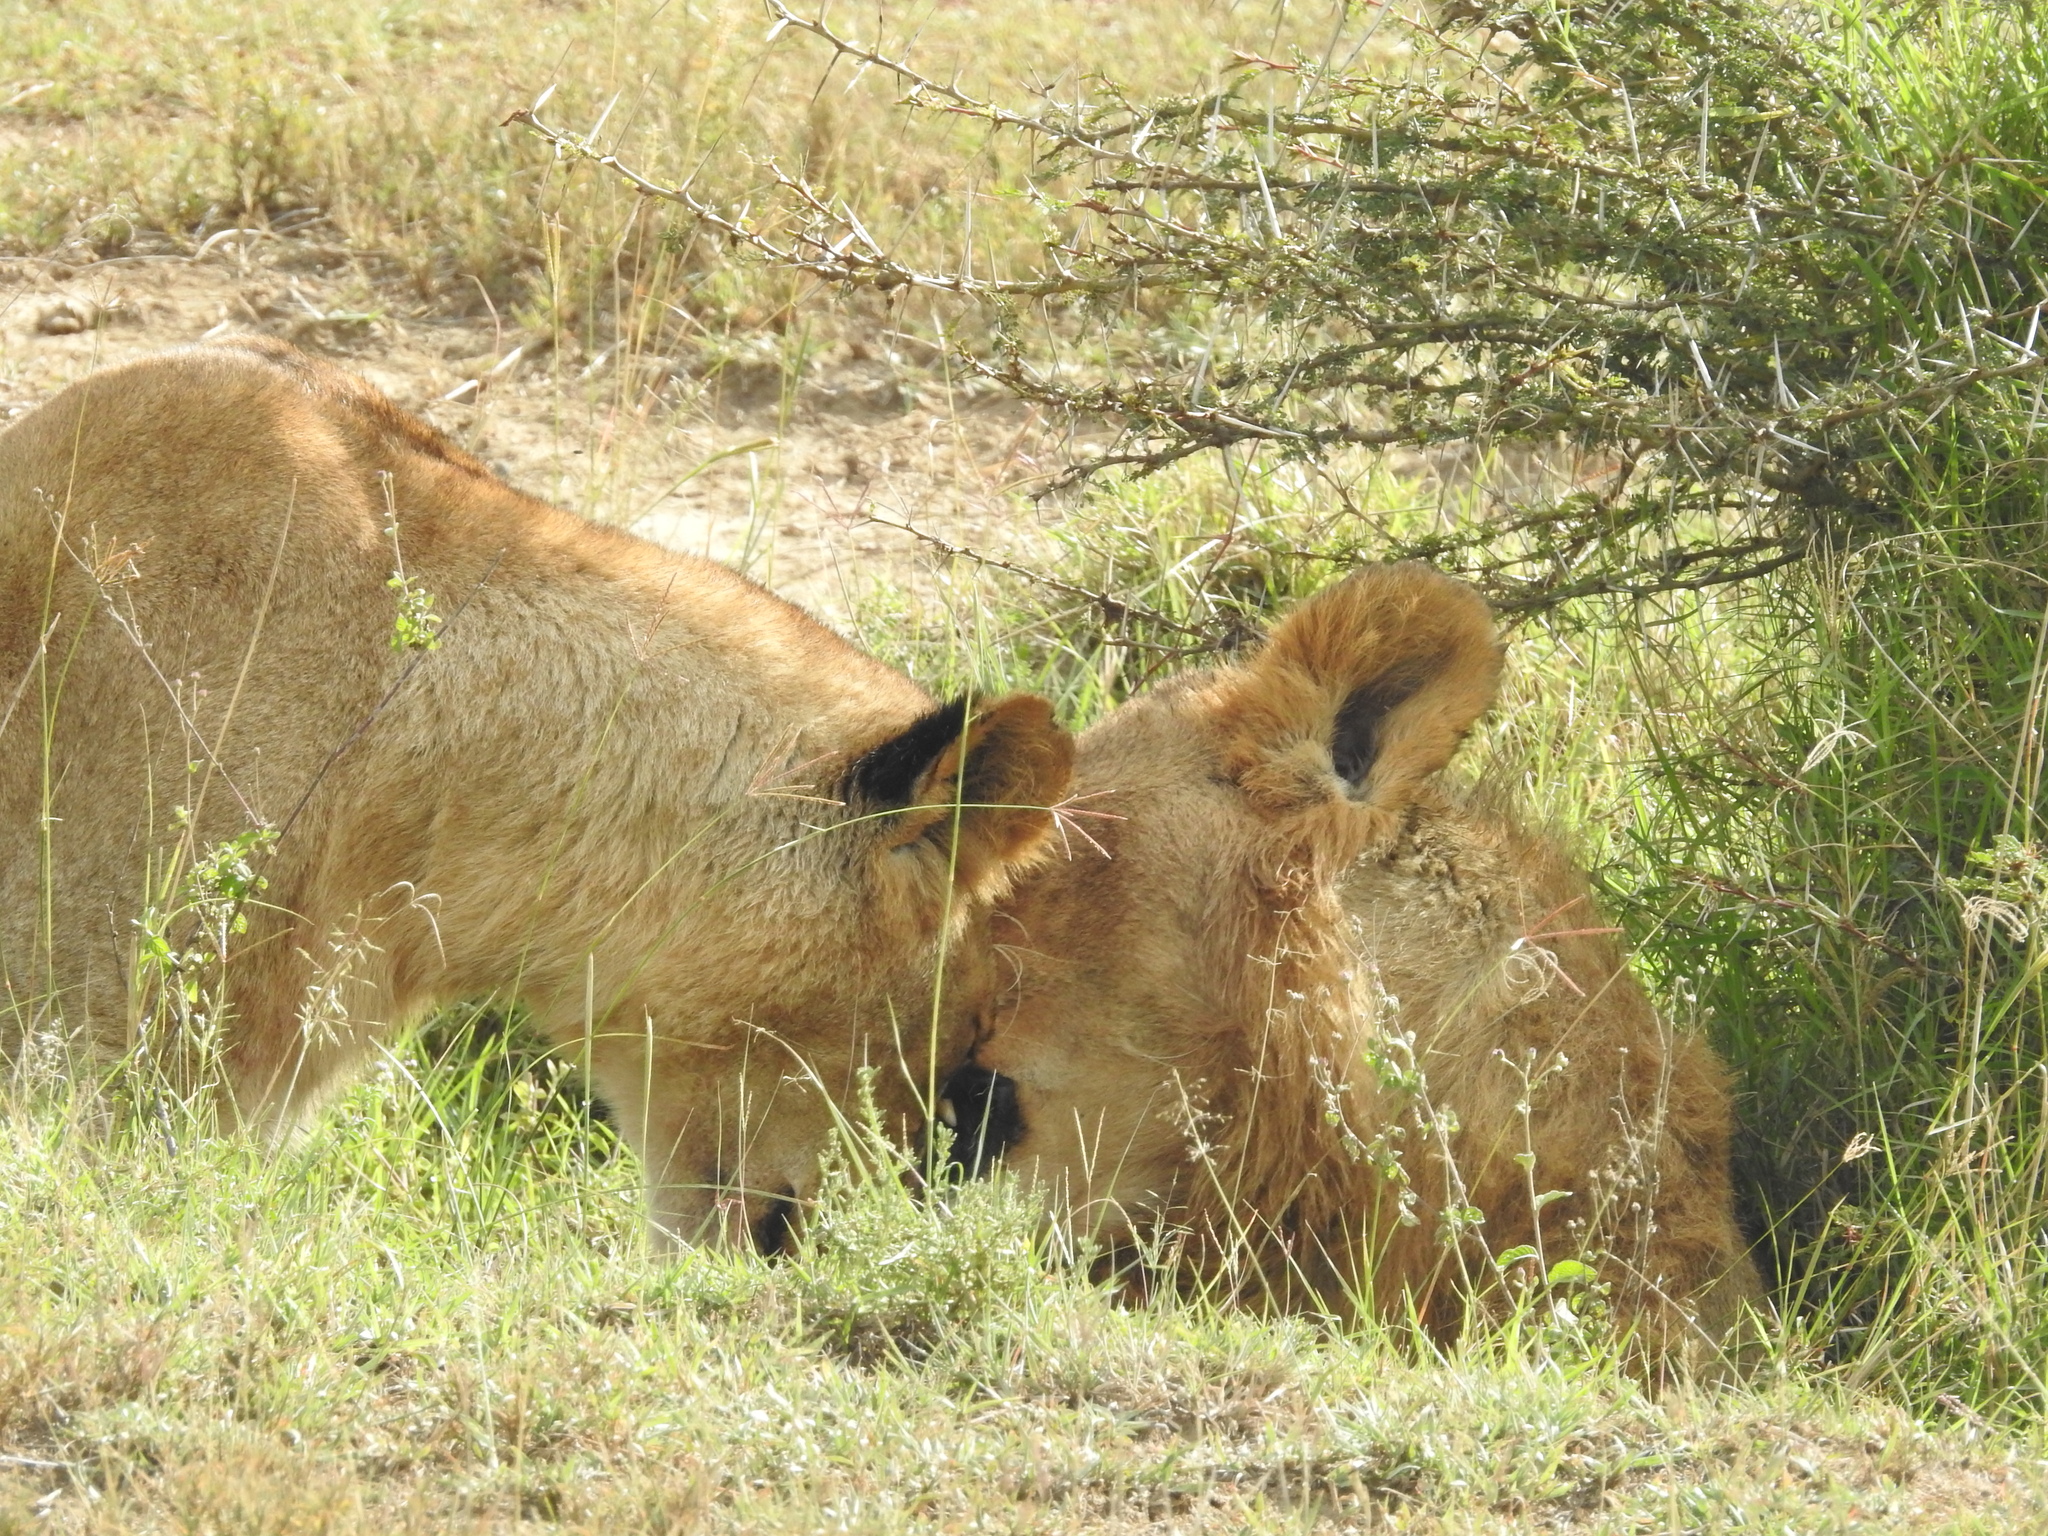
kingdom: Animalia
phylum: Chordata
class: Mammalia
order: Carnivora
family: Felidae
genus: Panthera
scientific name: Panthera leo
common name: Lion
